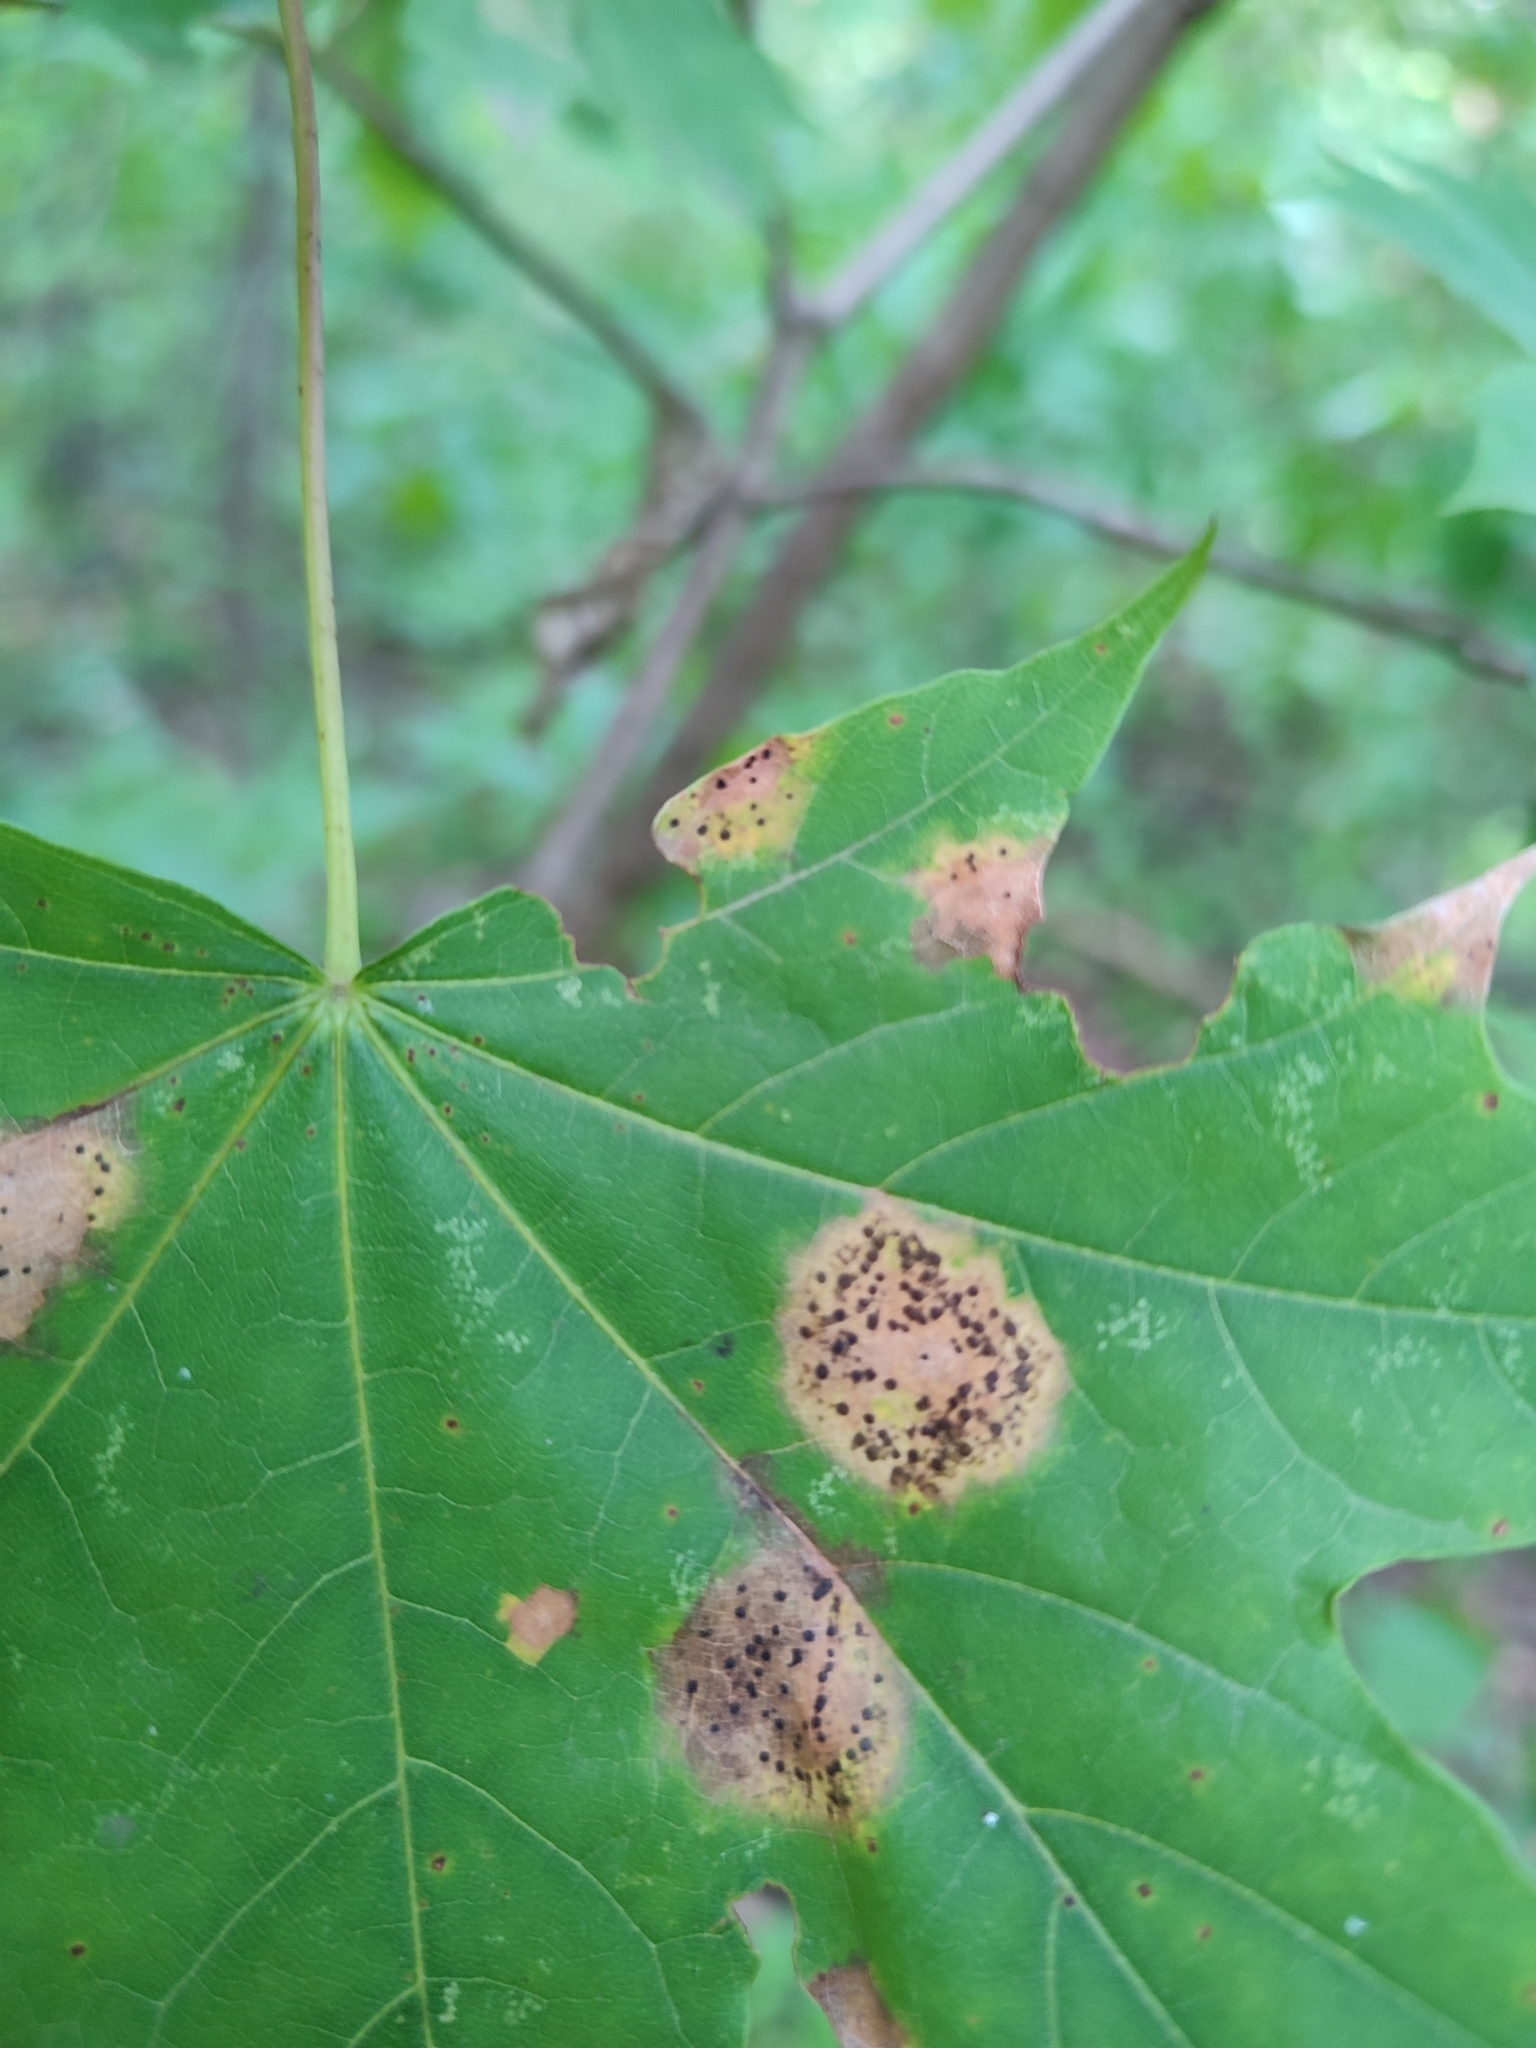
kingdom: Fungi
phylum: Ascomycota
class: Leotiomycetes
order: Rhytismatales
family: Rhytismataceae
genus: Rhytisma
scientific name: Rhytisma acerinum
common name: European tar spot
